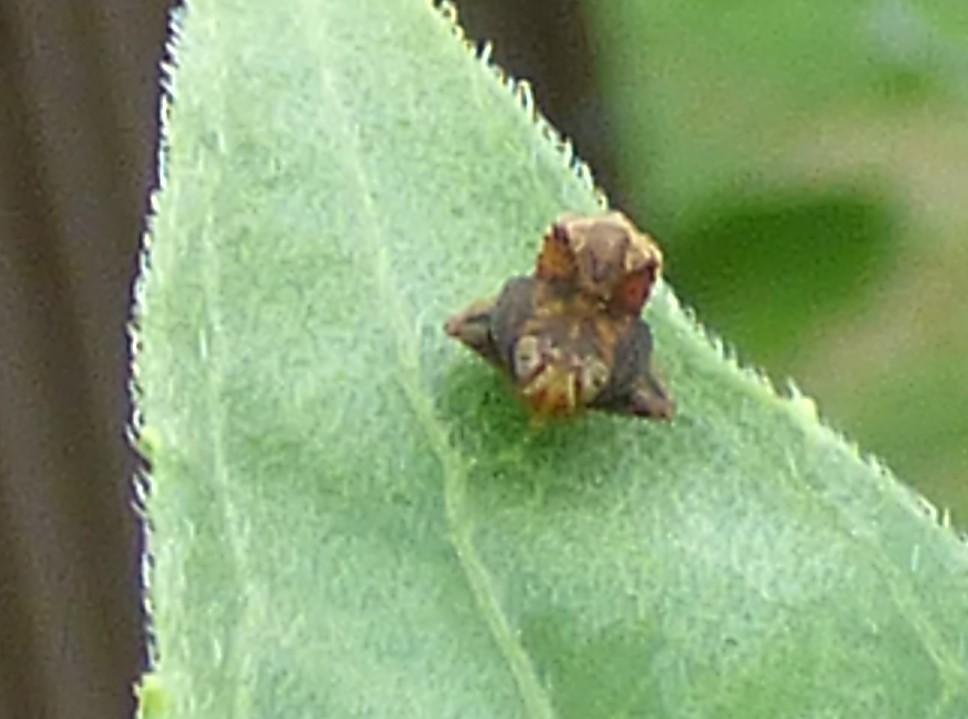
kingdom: Animalia
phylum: Arthropoda
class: Insecta
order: Hemiptera
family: Cicadellidae
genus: Jikradia
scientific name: Jikradia olitoria
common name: Coppery leafhopper
